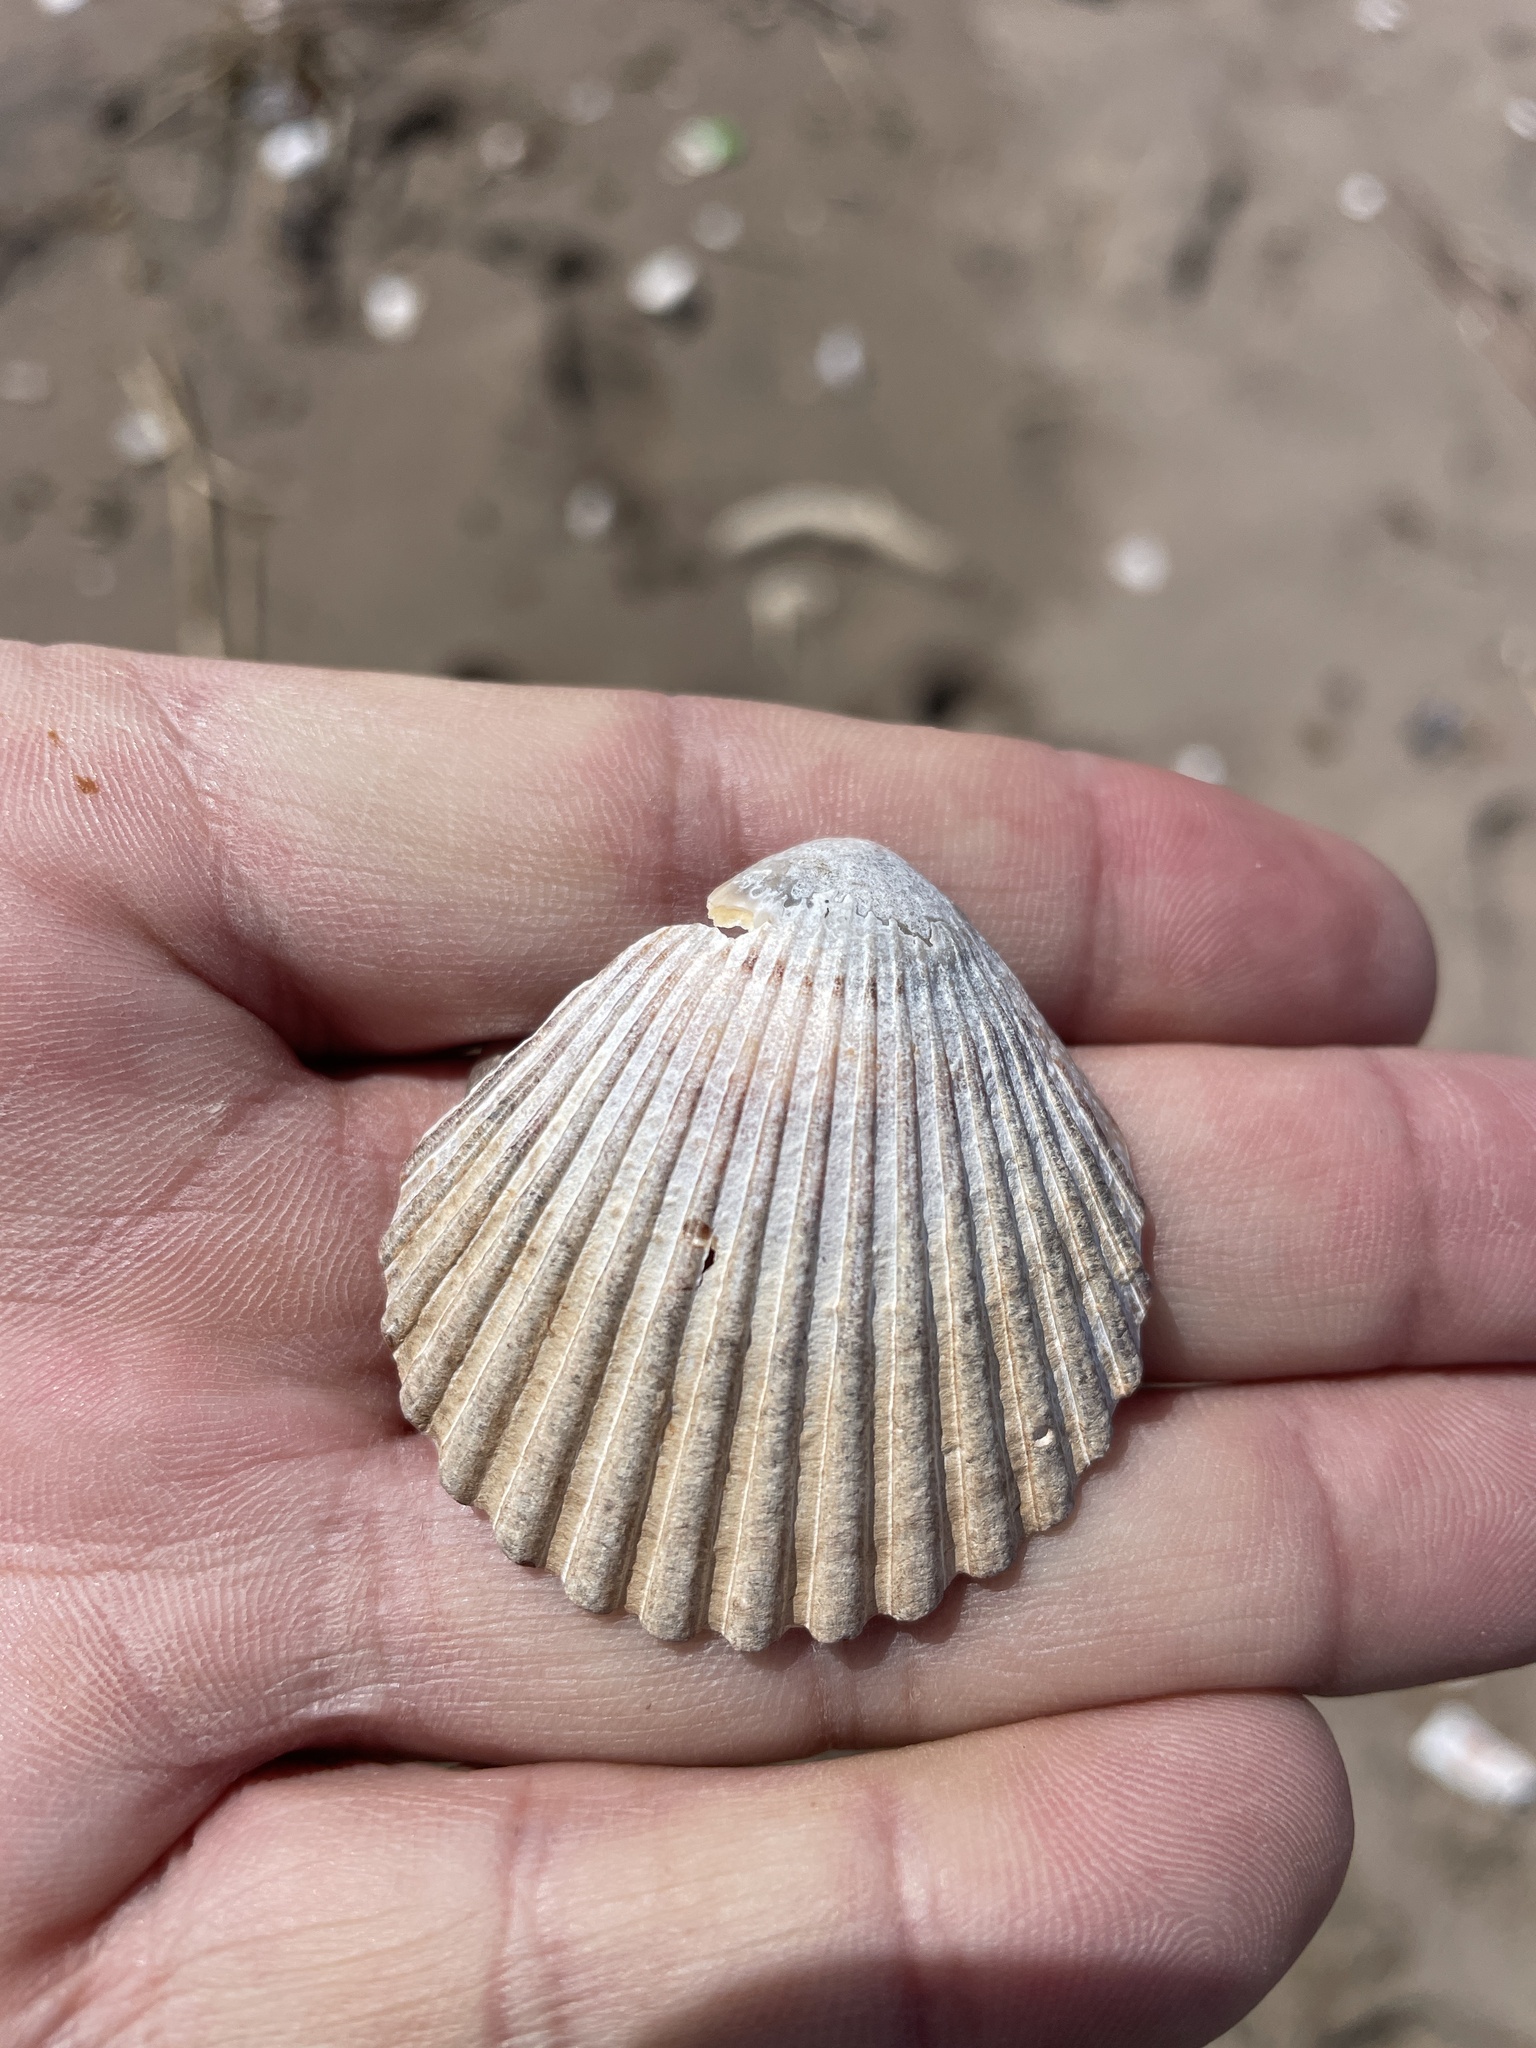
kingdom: Animalia
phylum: Mollusca
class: Bivalvia
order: Pectinida
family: Pectinidae
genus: Argopecten
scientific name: Argopecten irradians
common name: Atlantic bay scallop
